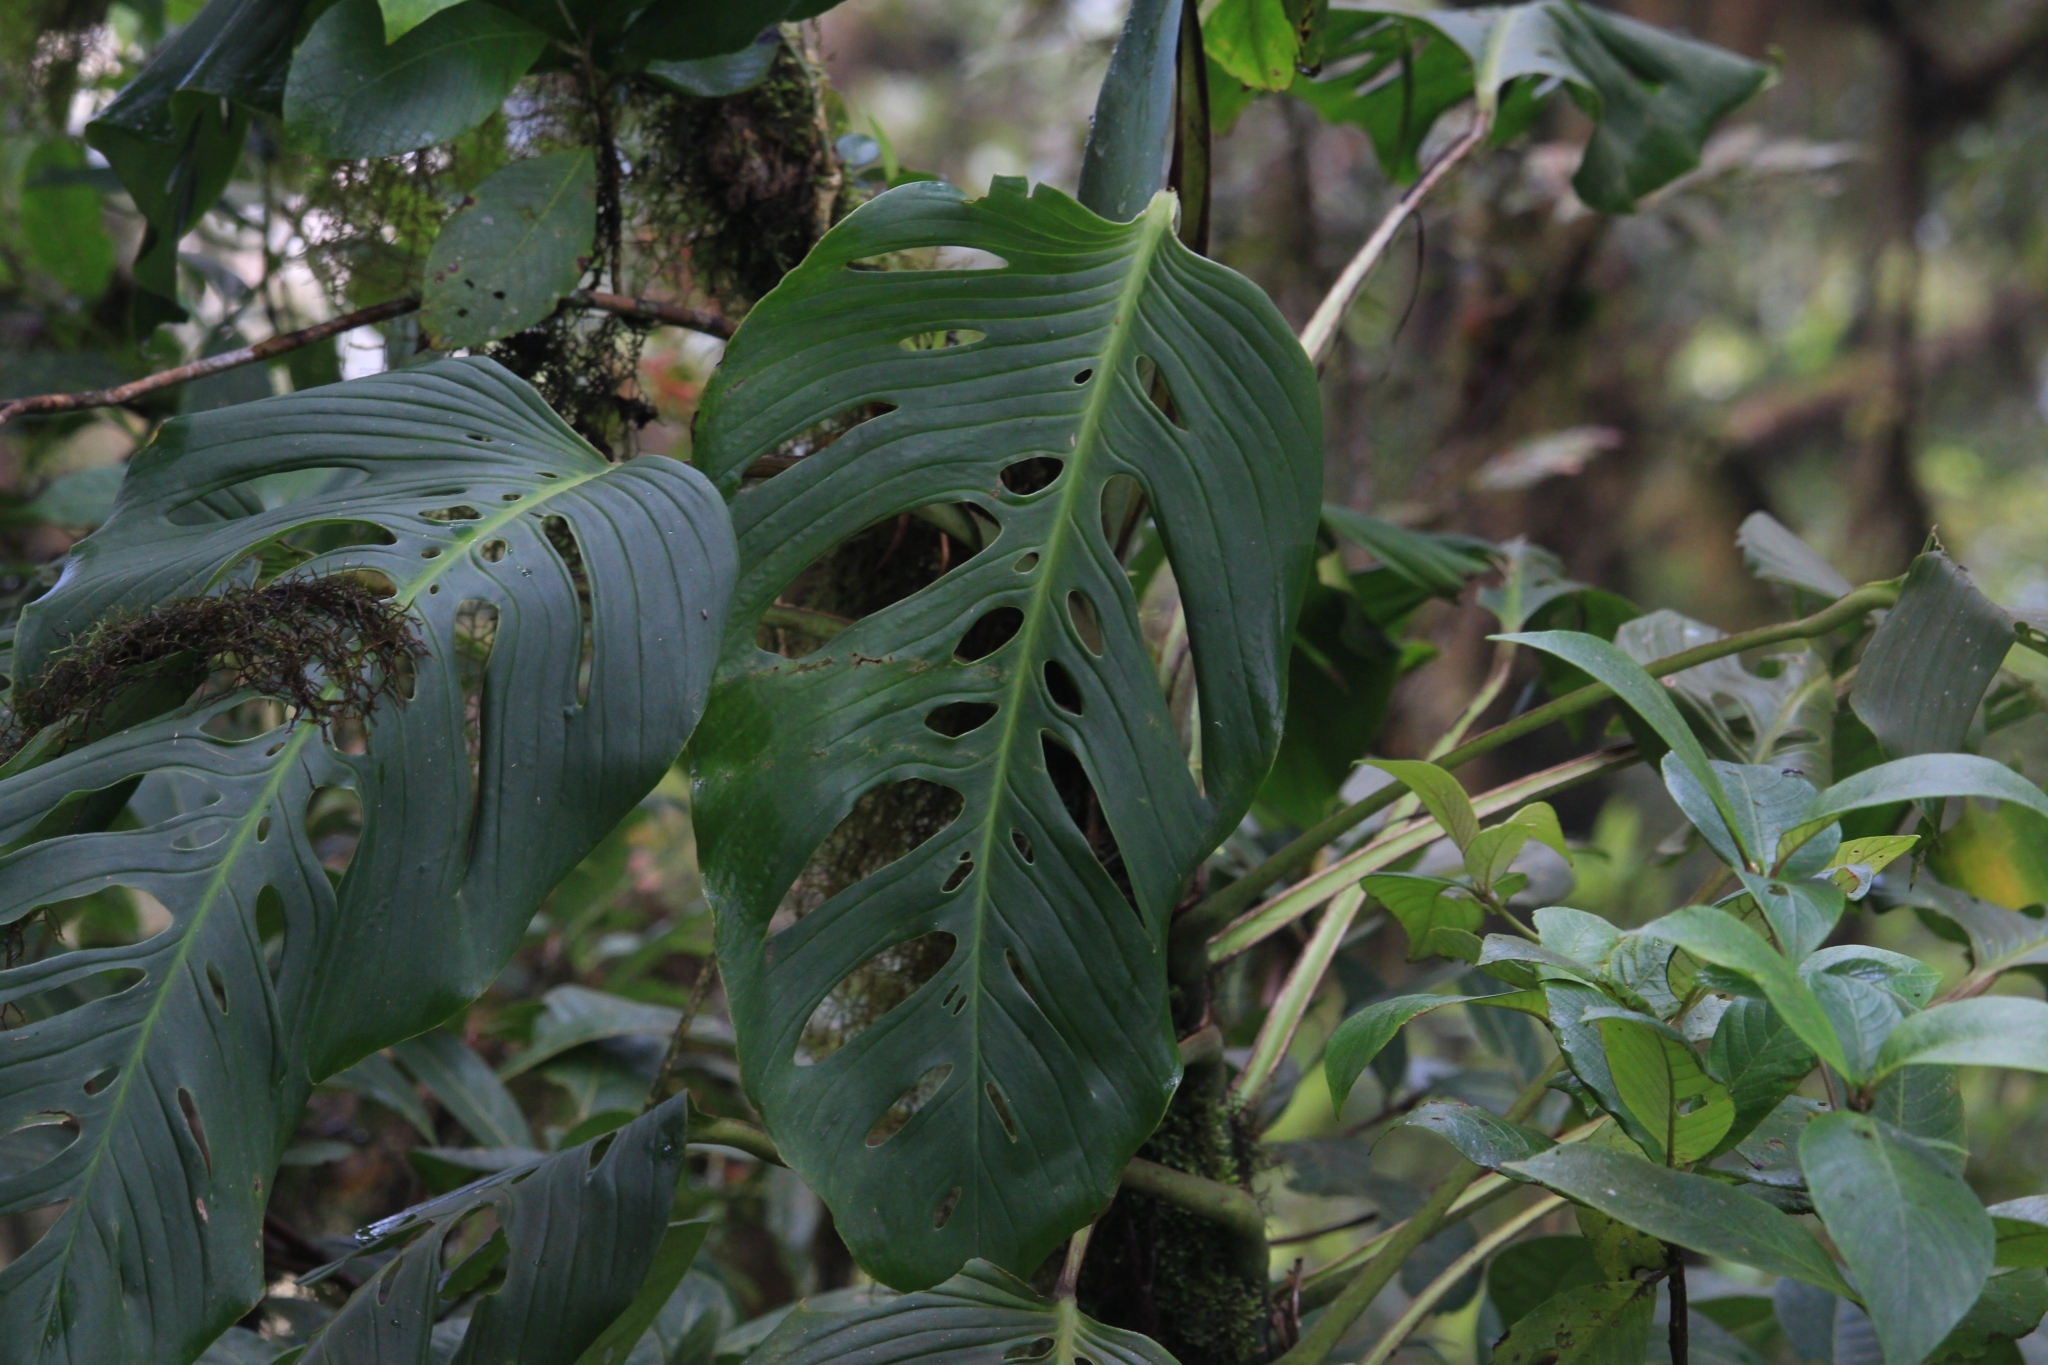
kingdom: Plantae
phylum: Tracheophyta
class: Liliopsida
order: Alismatales
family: Araceae
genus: Monstera
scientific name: Monstera oreophila
